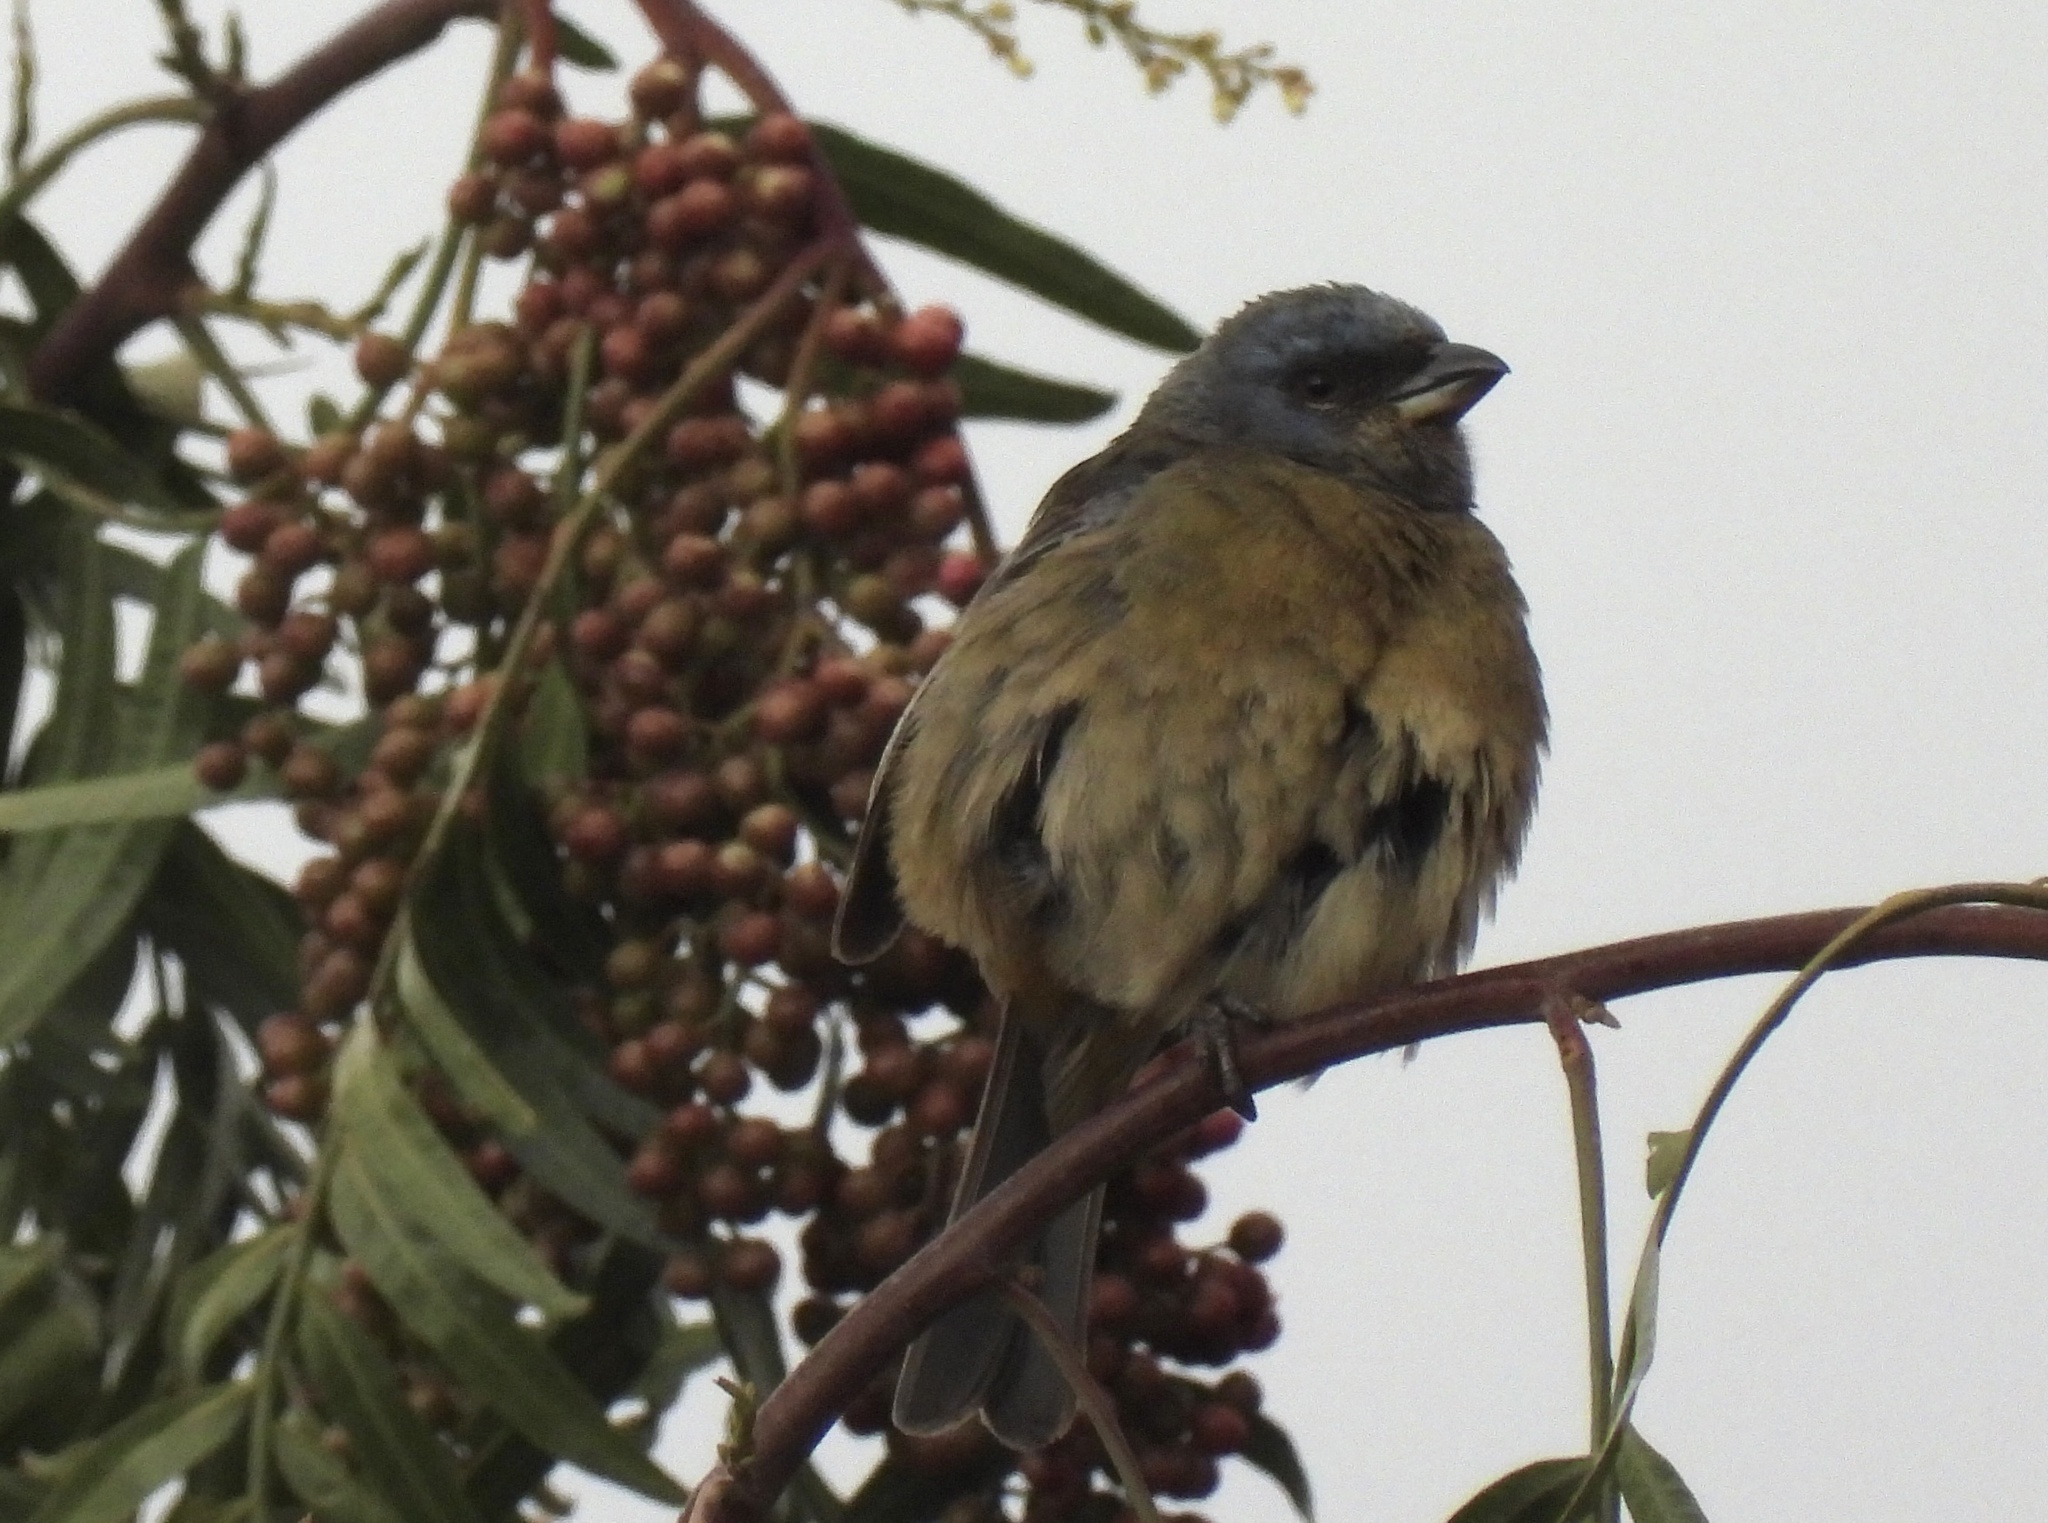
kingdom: Animalia
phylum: Chordata
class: Aves
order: Passeriformes
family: Thraupidae
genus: Rauenia
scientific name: Rauenia bonariensis
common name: Blue-and-yellow tanager
